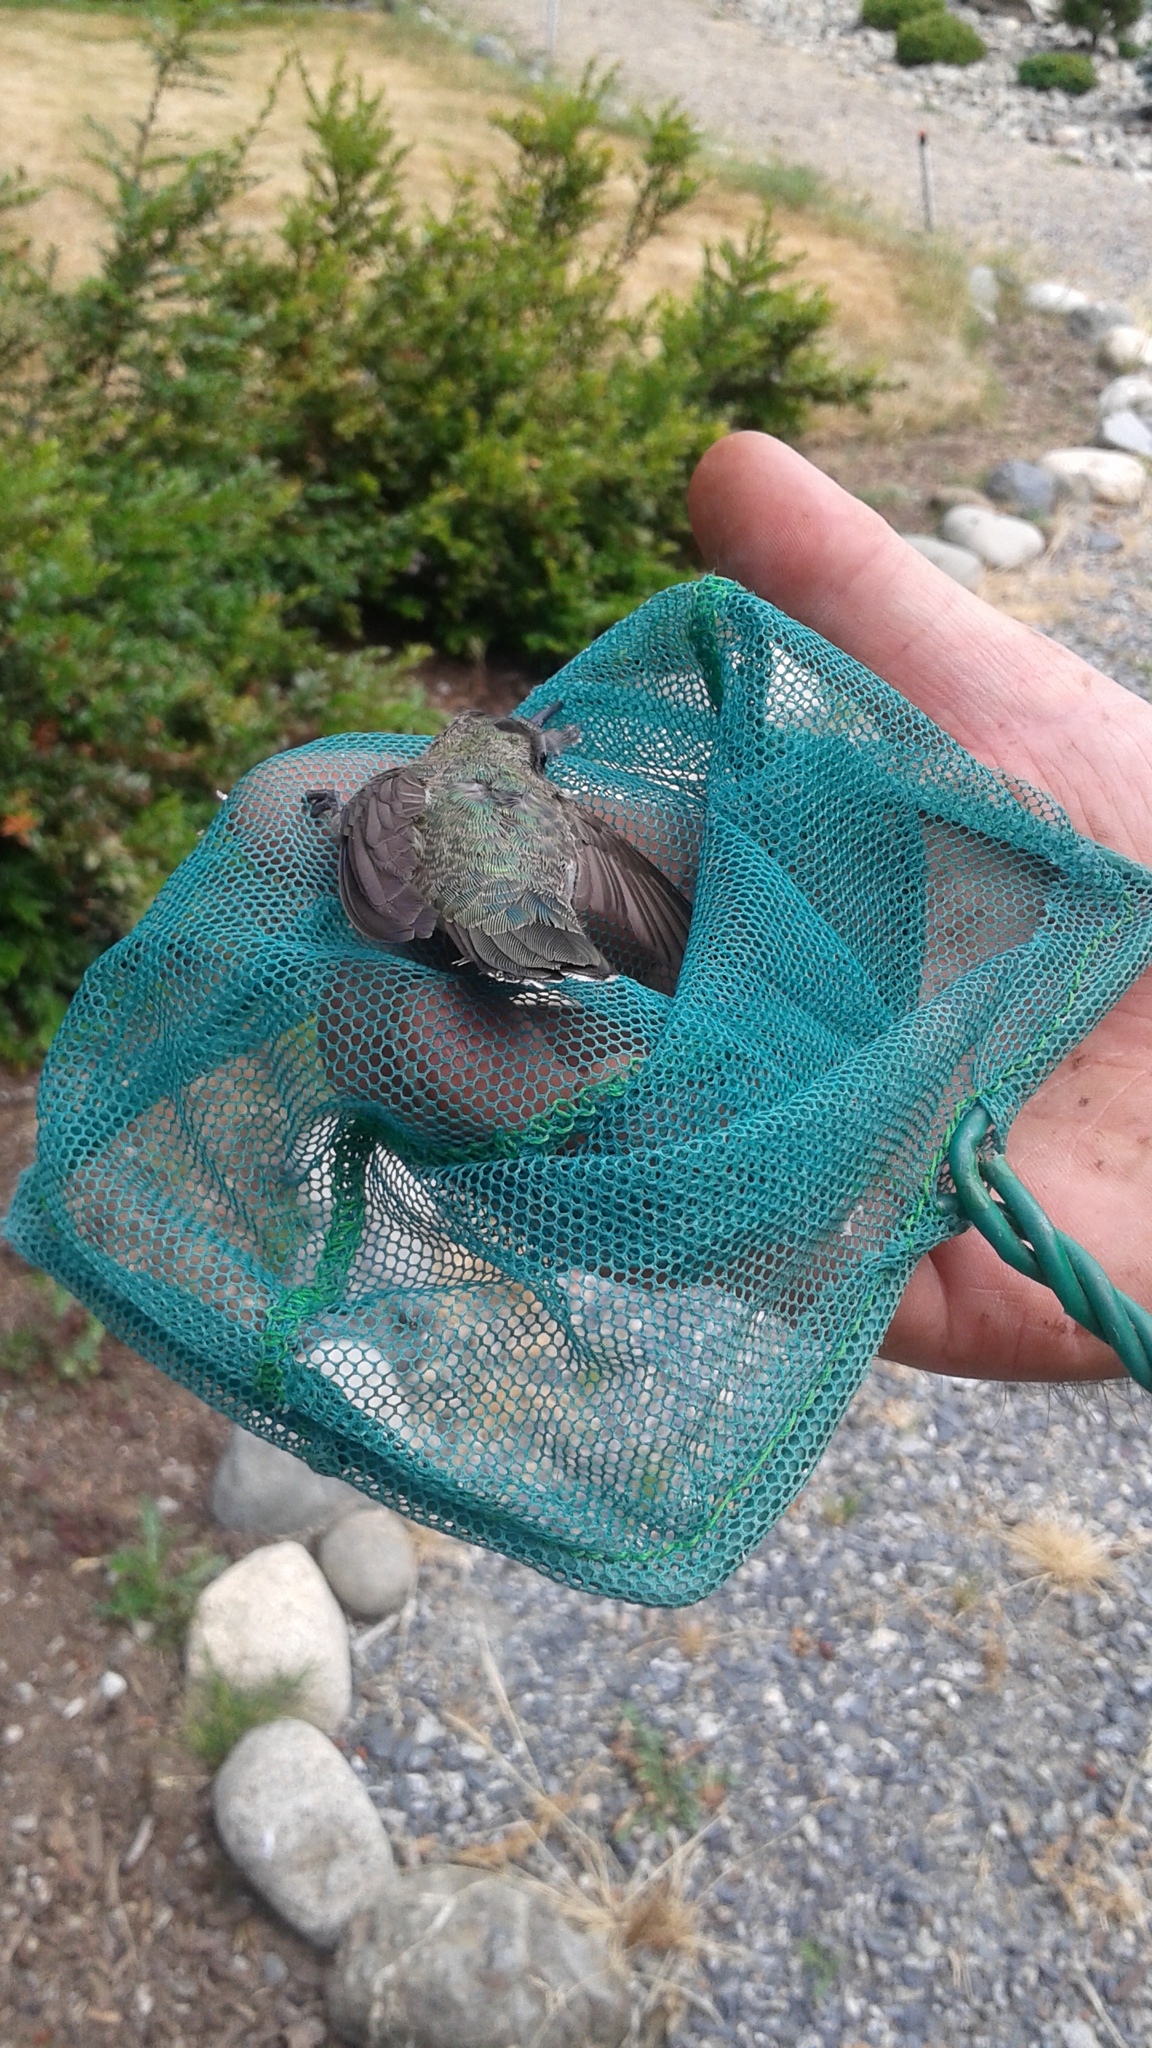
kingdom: Animalia
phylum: Chordata
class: Aves
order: Apodiformes
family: Trochilidae
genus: Calypte
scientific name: Calypte anna
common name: Anna's hummingbird
